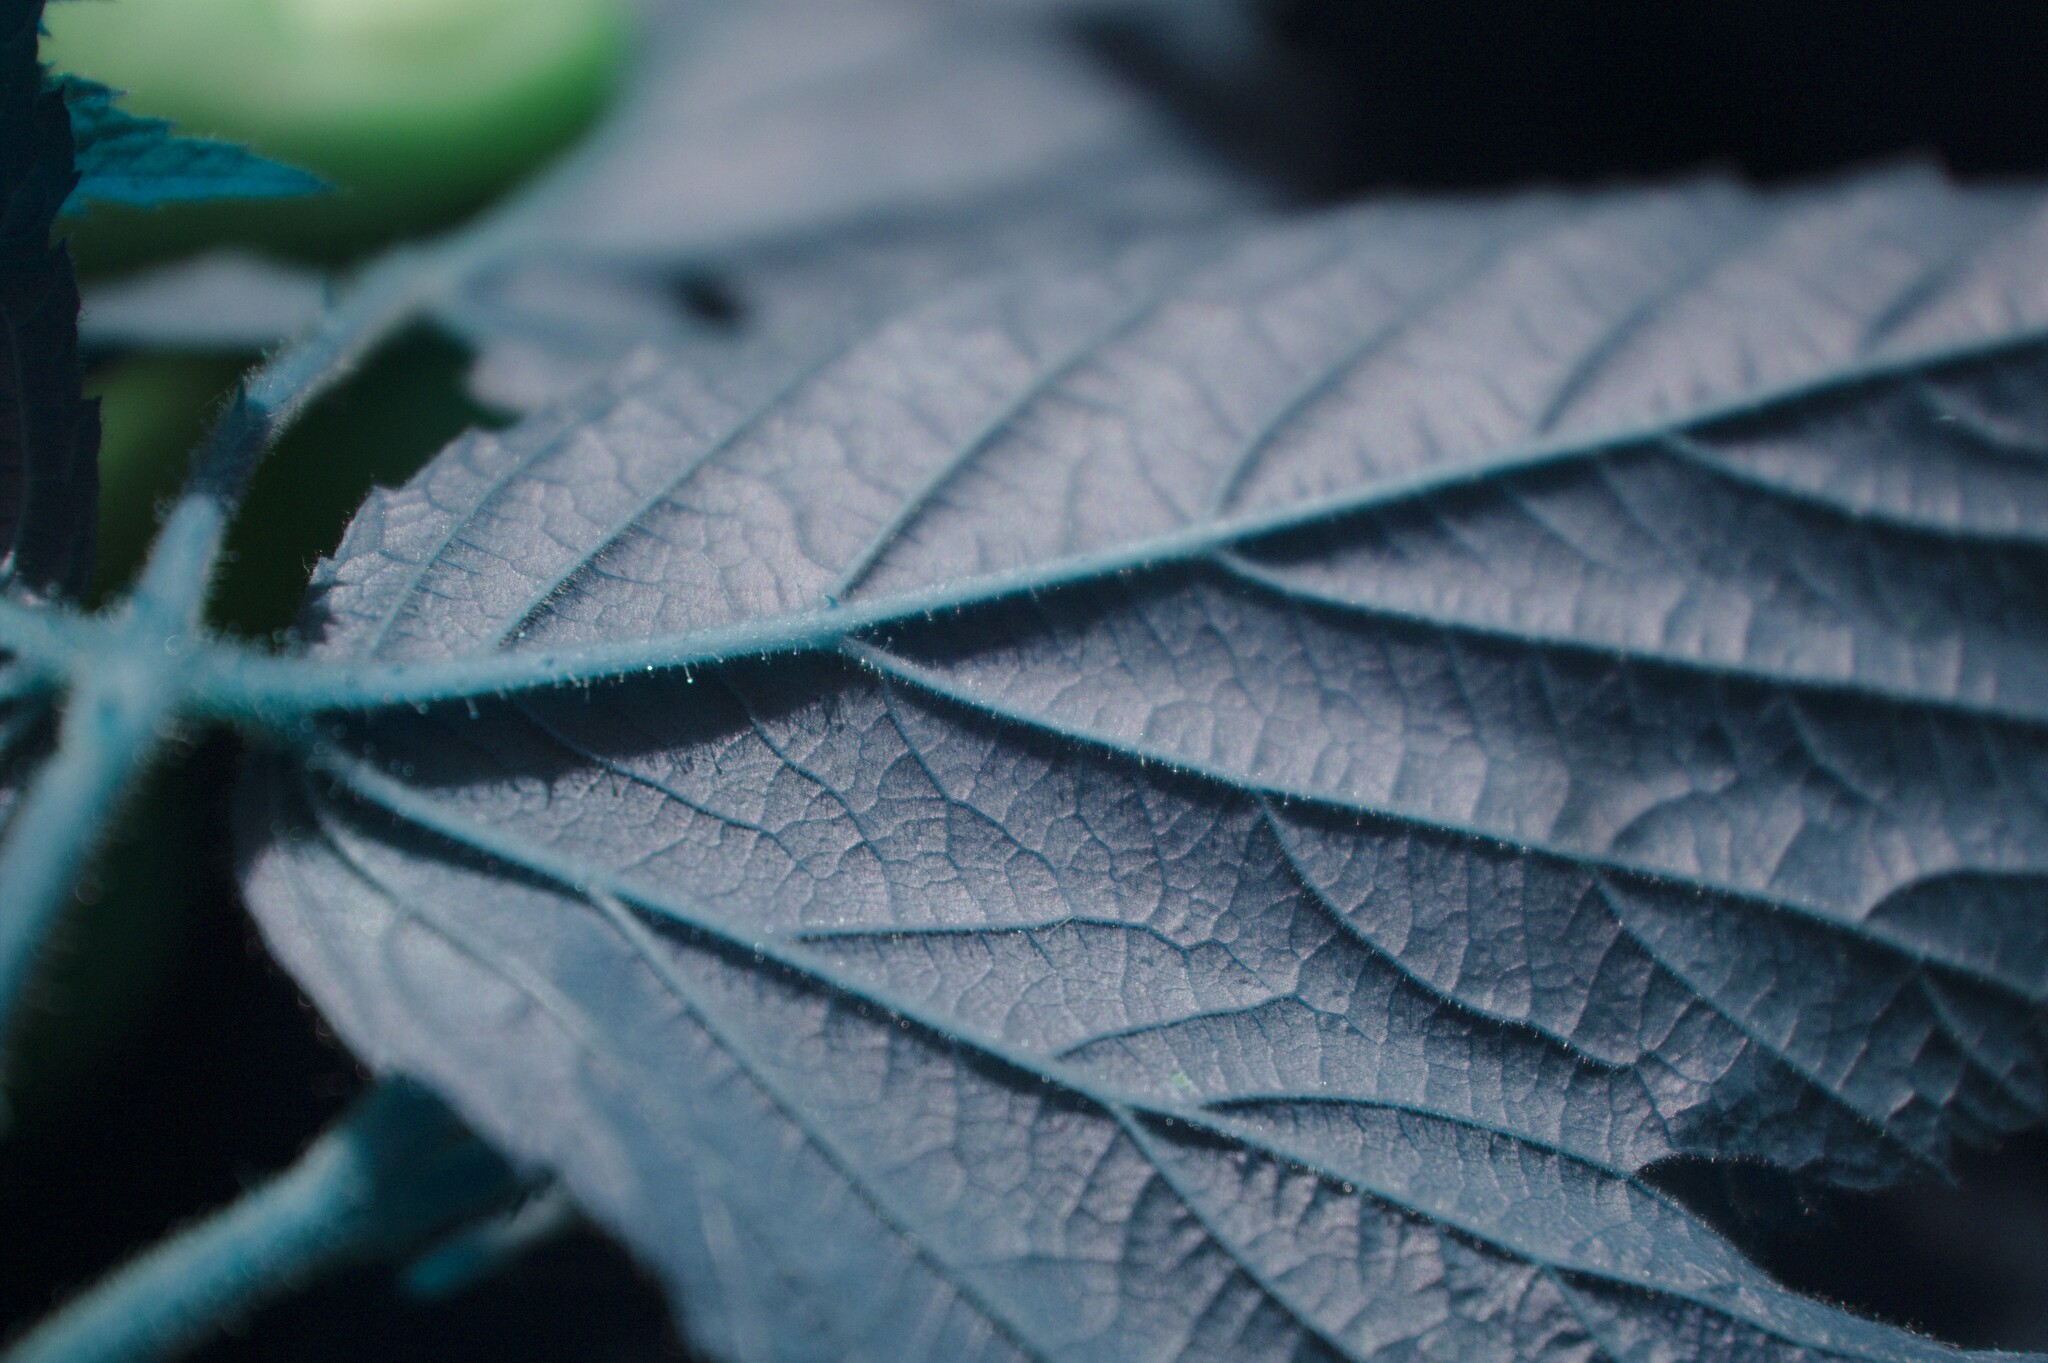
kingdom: Plantae
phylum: Tracheophyta
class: Magnoliopsida
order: Rosales
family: Rosaceae
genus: Rubus
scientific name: Rubus allegheniensis
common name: Allegheny blackberry
